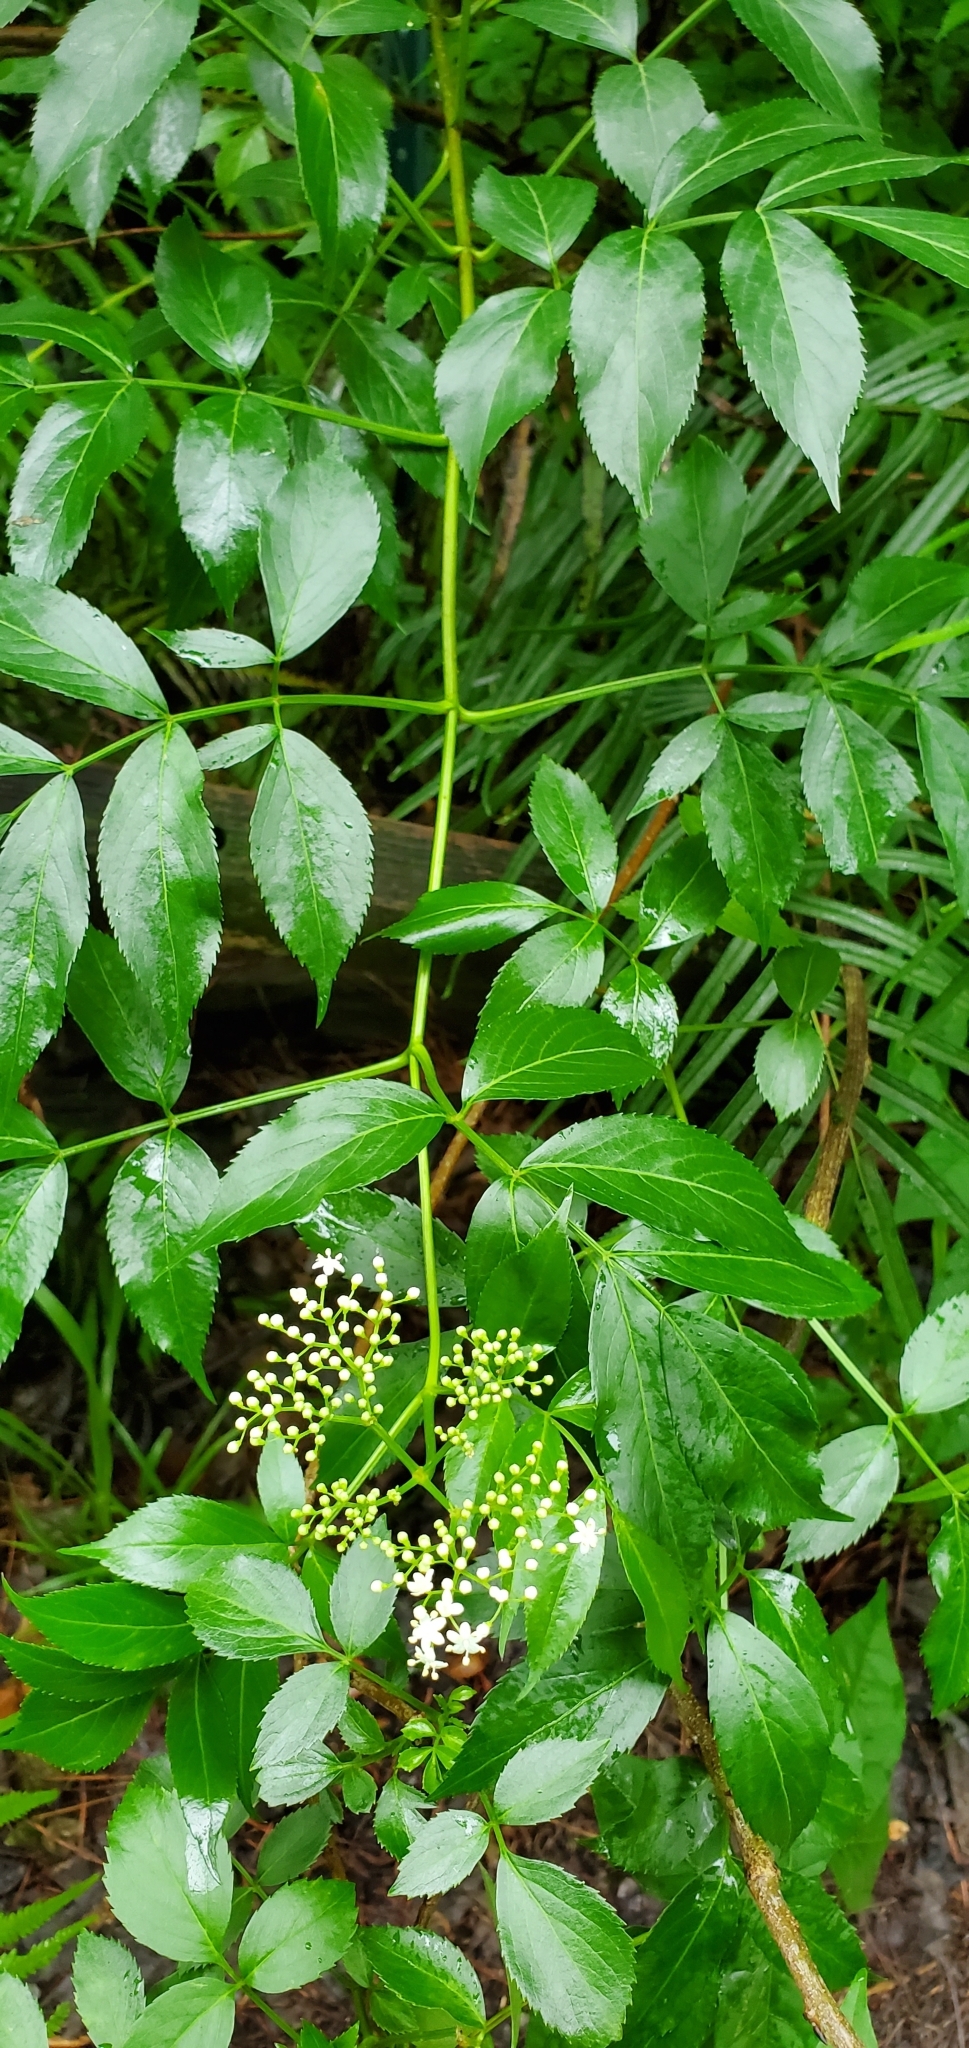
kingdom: Plantae
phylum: Tracheophyta
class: Magnoliopsida
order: Dipsacales
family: Viburnaceae
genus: Sambucus
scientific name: Sambucus canadensis
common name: American elder
